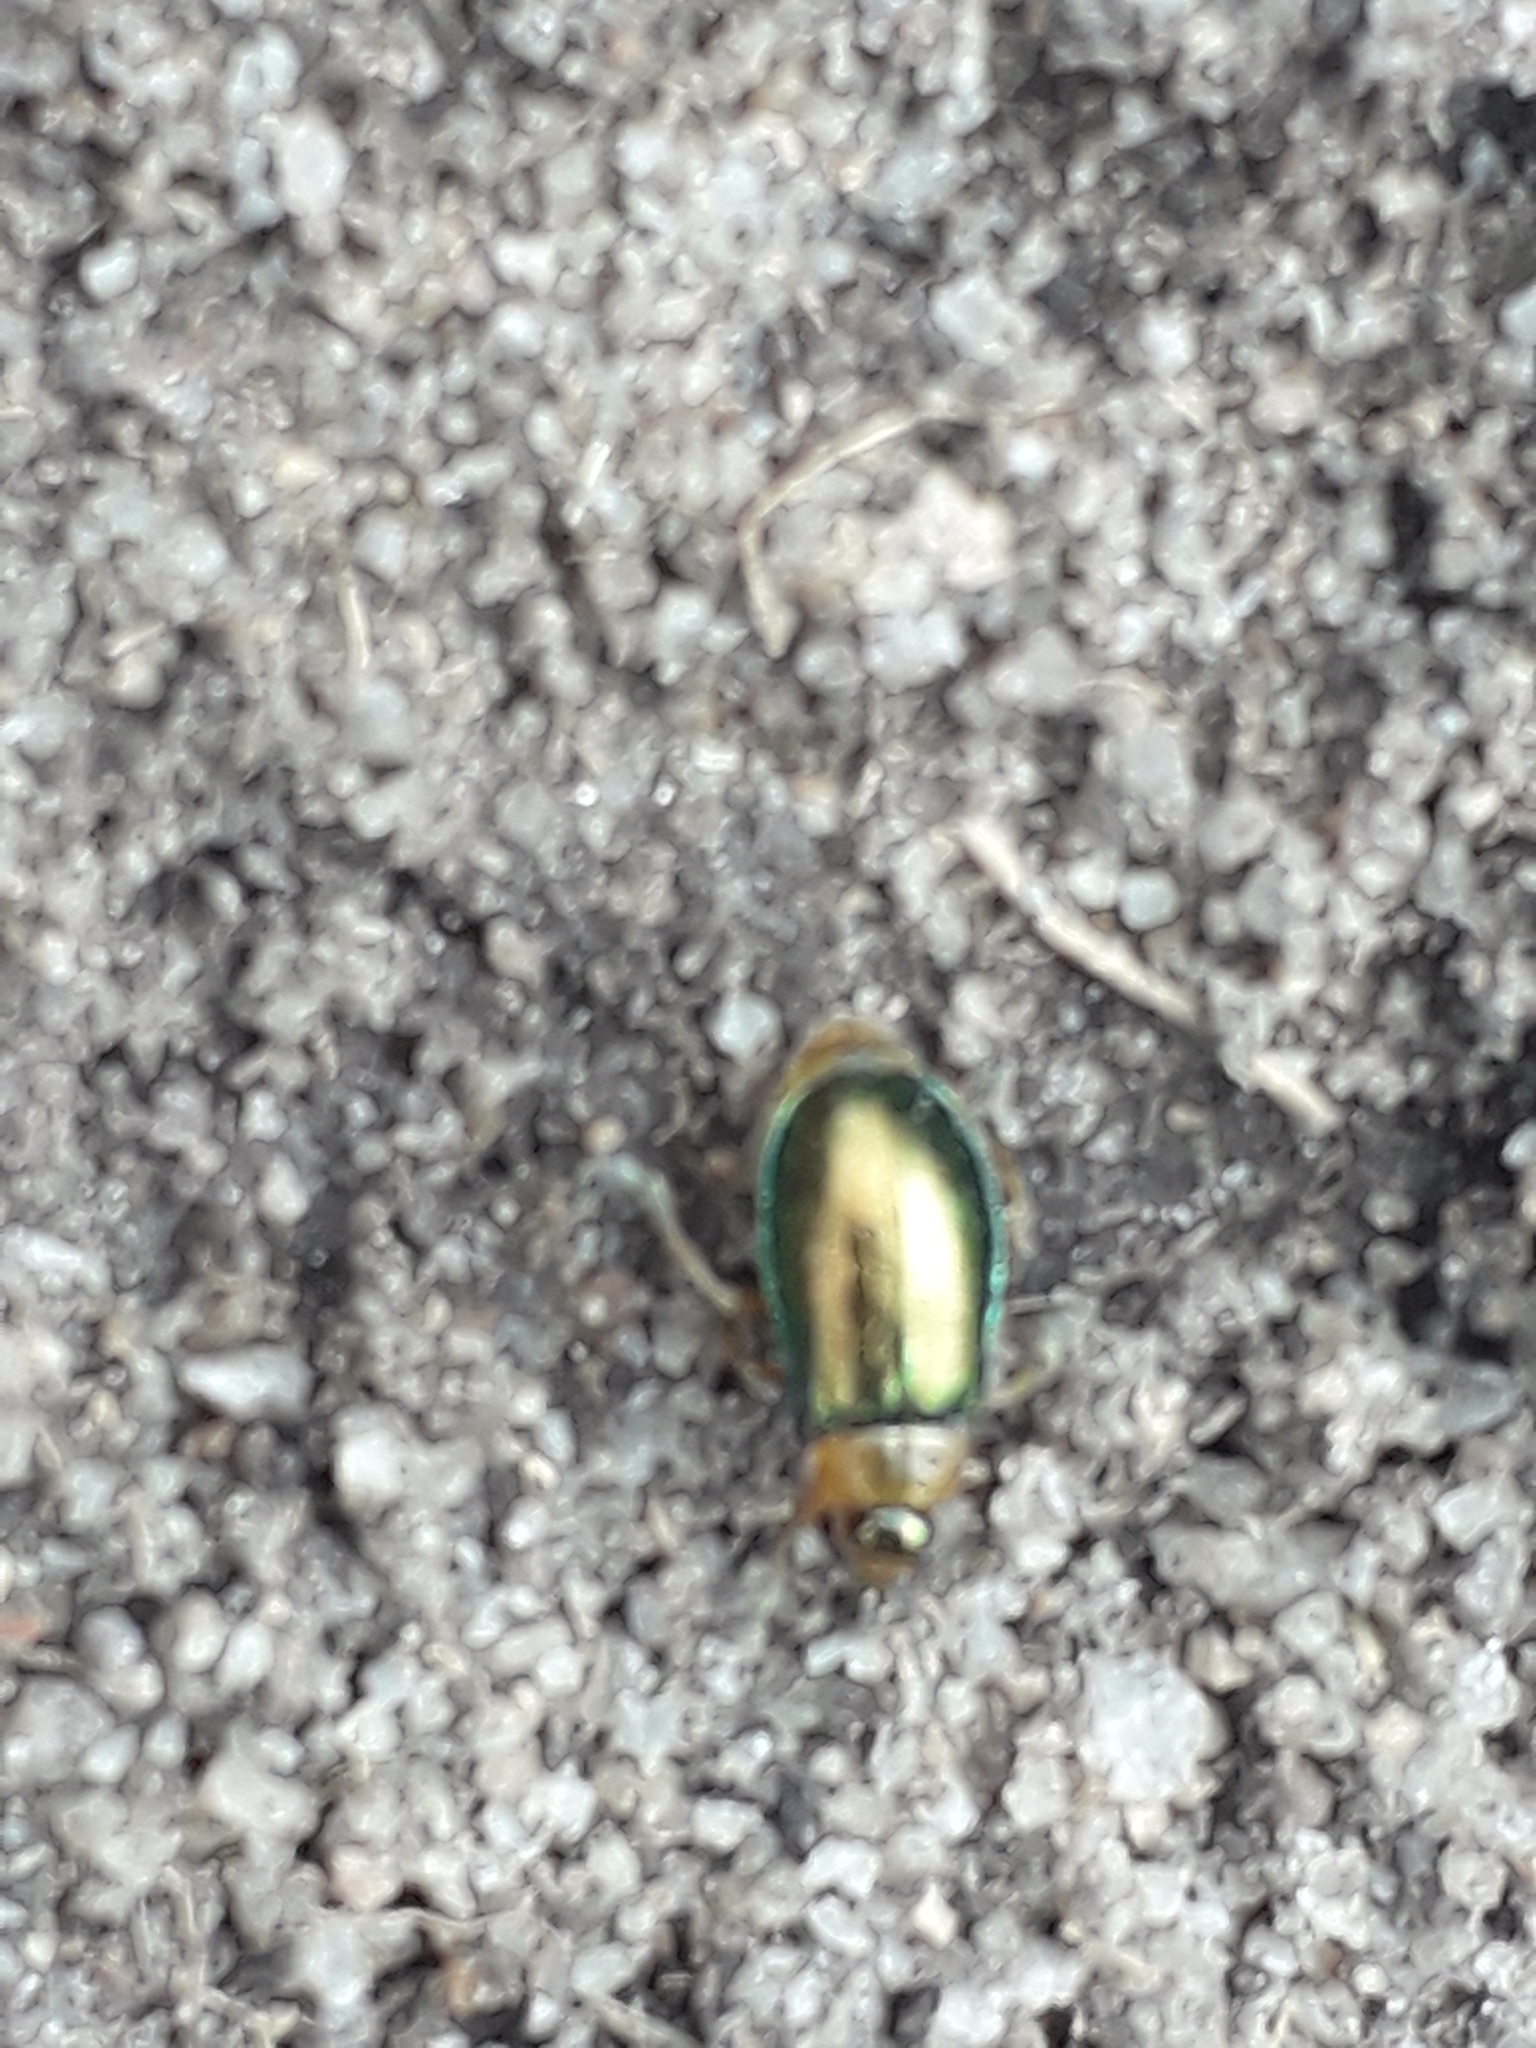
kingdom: Animalia
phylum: Arthropoda
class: Insecta
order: Coleoptera
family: Chrysomelidae
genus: Sermylassa
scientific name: Sermylassa halensis
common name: Leaf beetle
